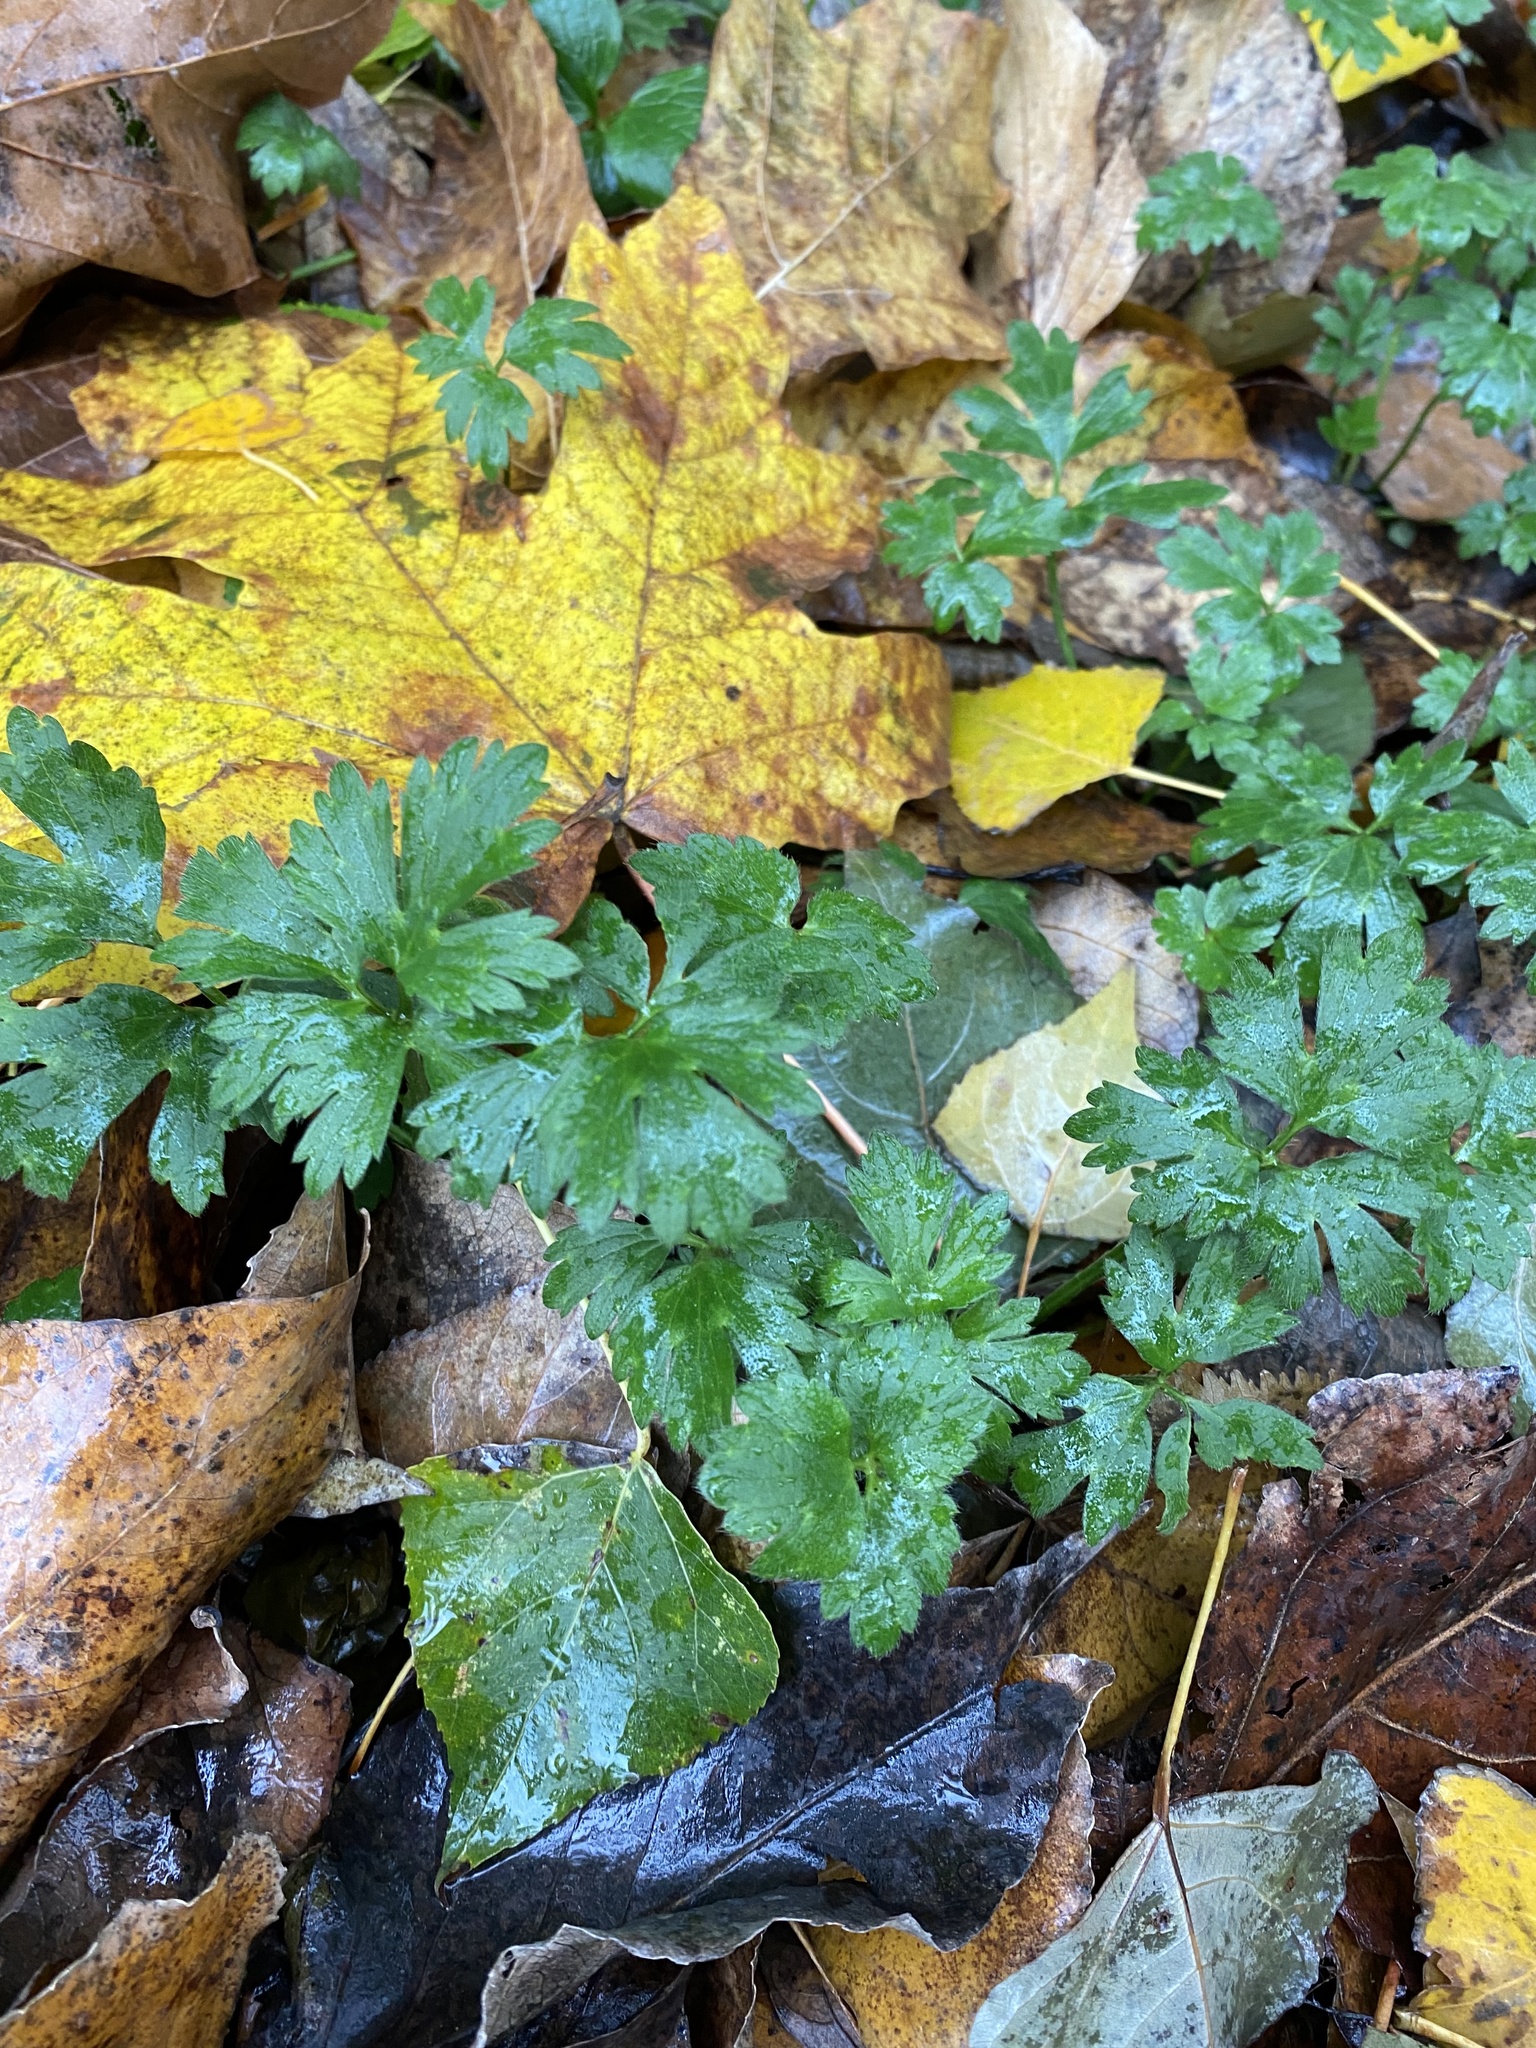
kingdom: Plantae
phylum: Tracheophyta
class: Magnoliopsida
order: Ranunculales
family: Ranunculaceae
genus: Ranunculus
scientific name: Ranunculus repens
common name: Creeping buttercup
